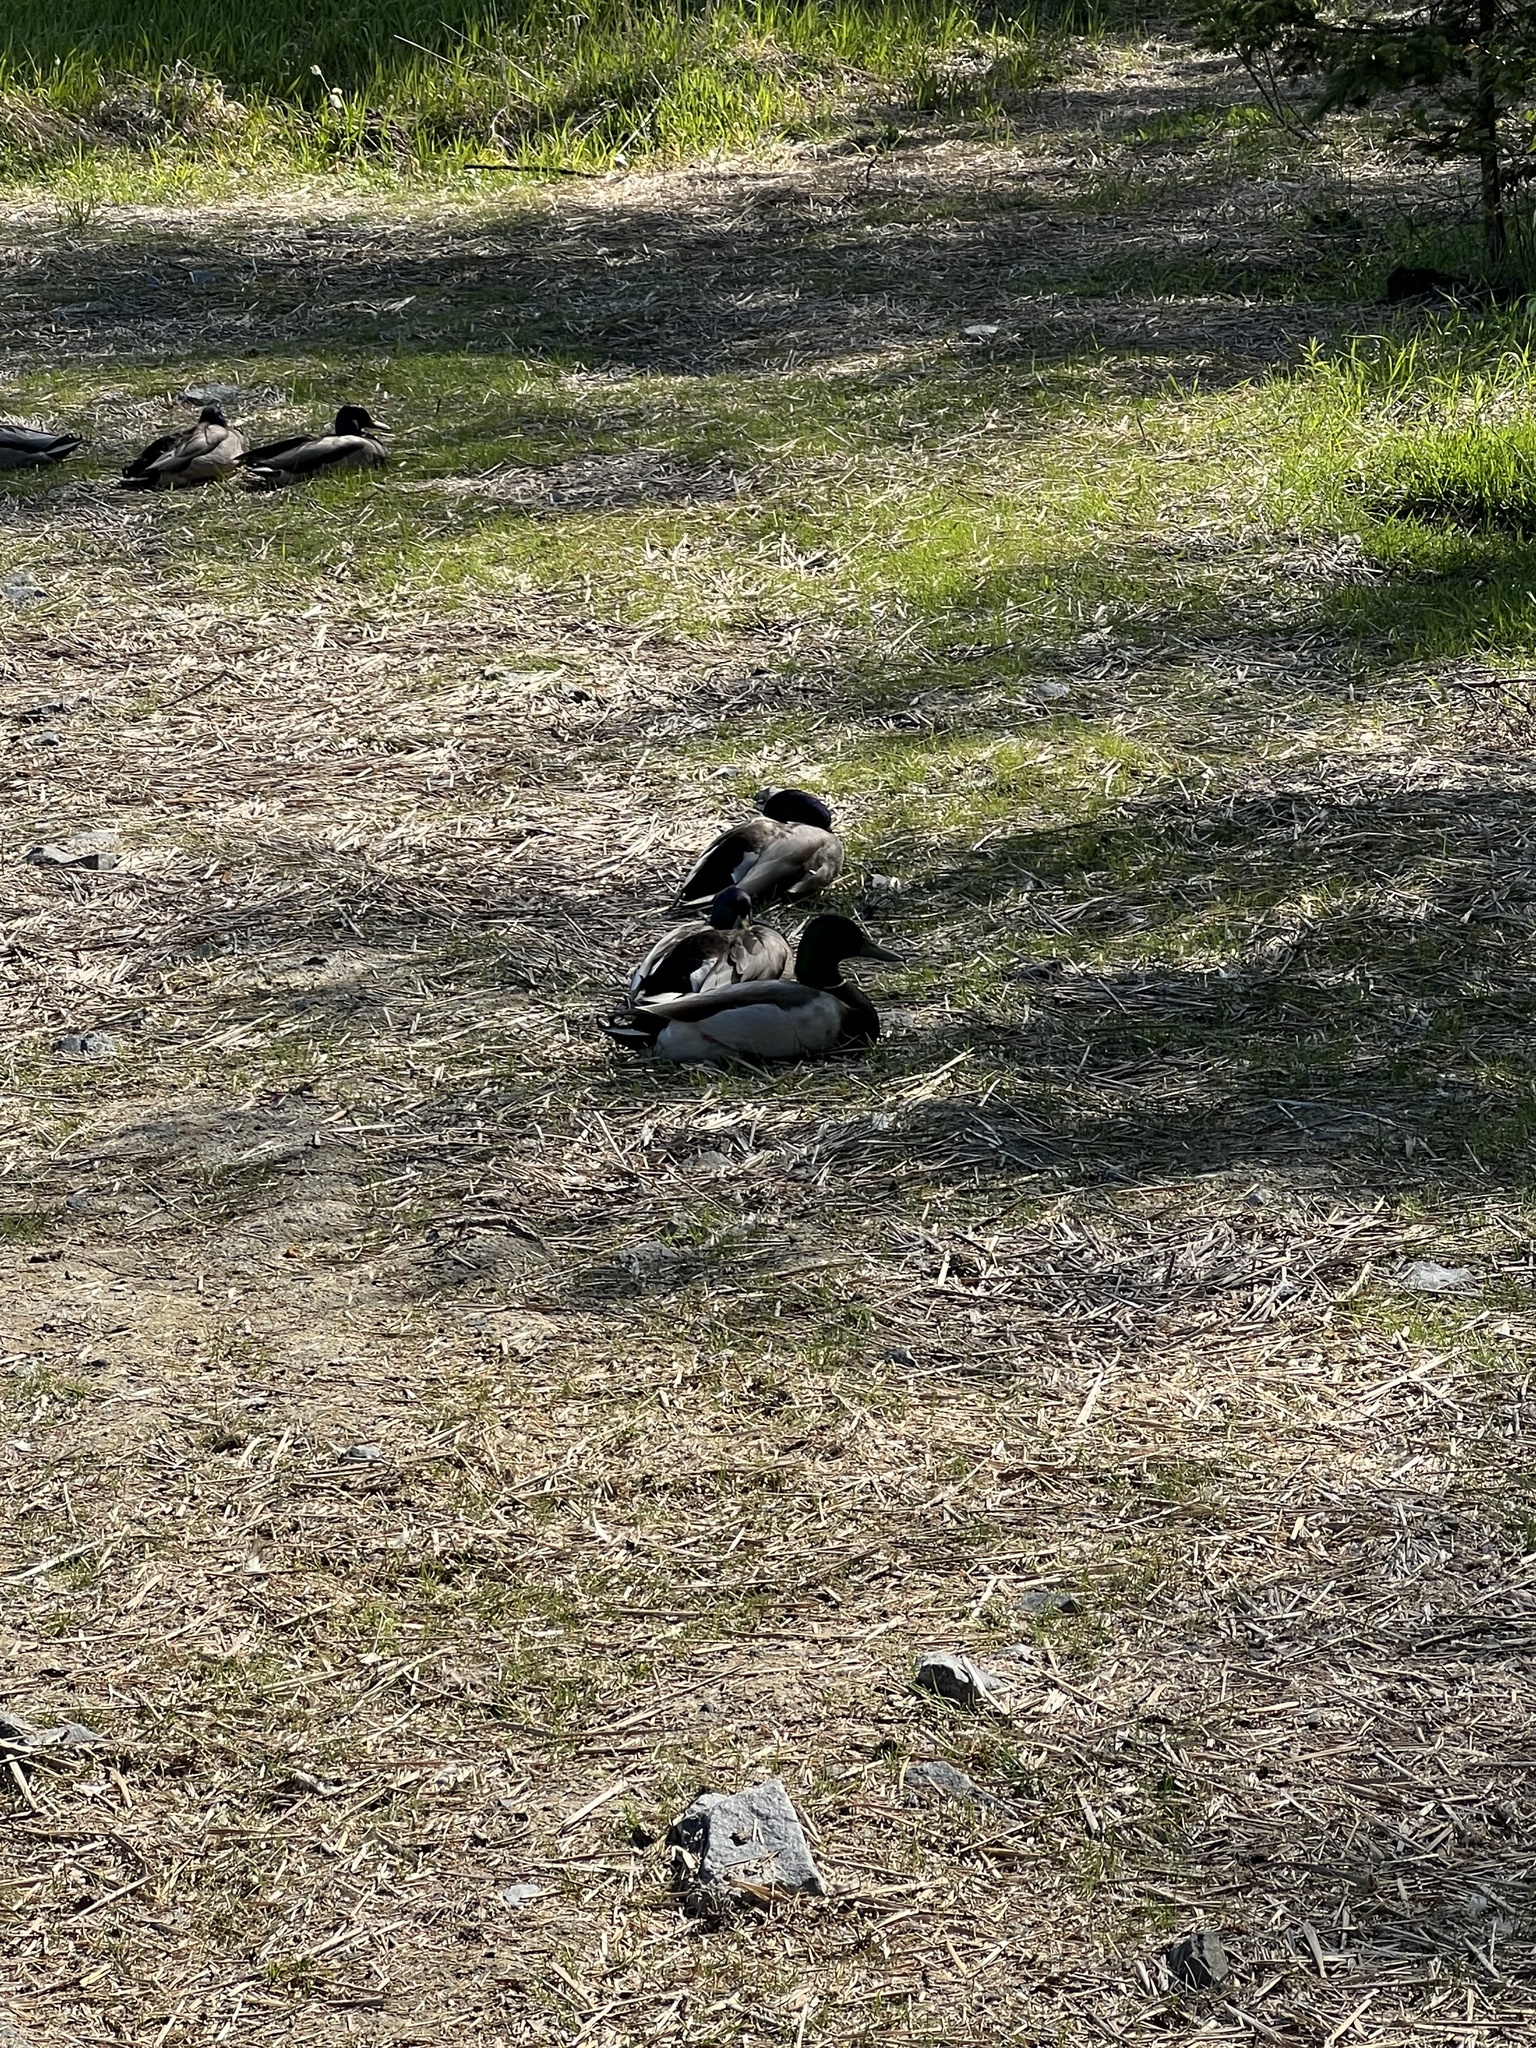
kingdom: Animalia
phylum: Chordata
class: Aves
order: Anseriformes
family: Anatidae
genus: Anas
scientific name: Anas platyrhynchos
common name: Mallard
